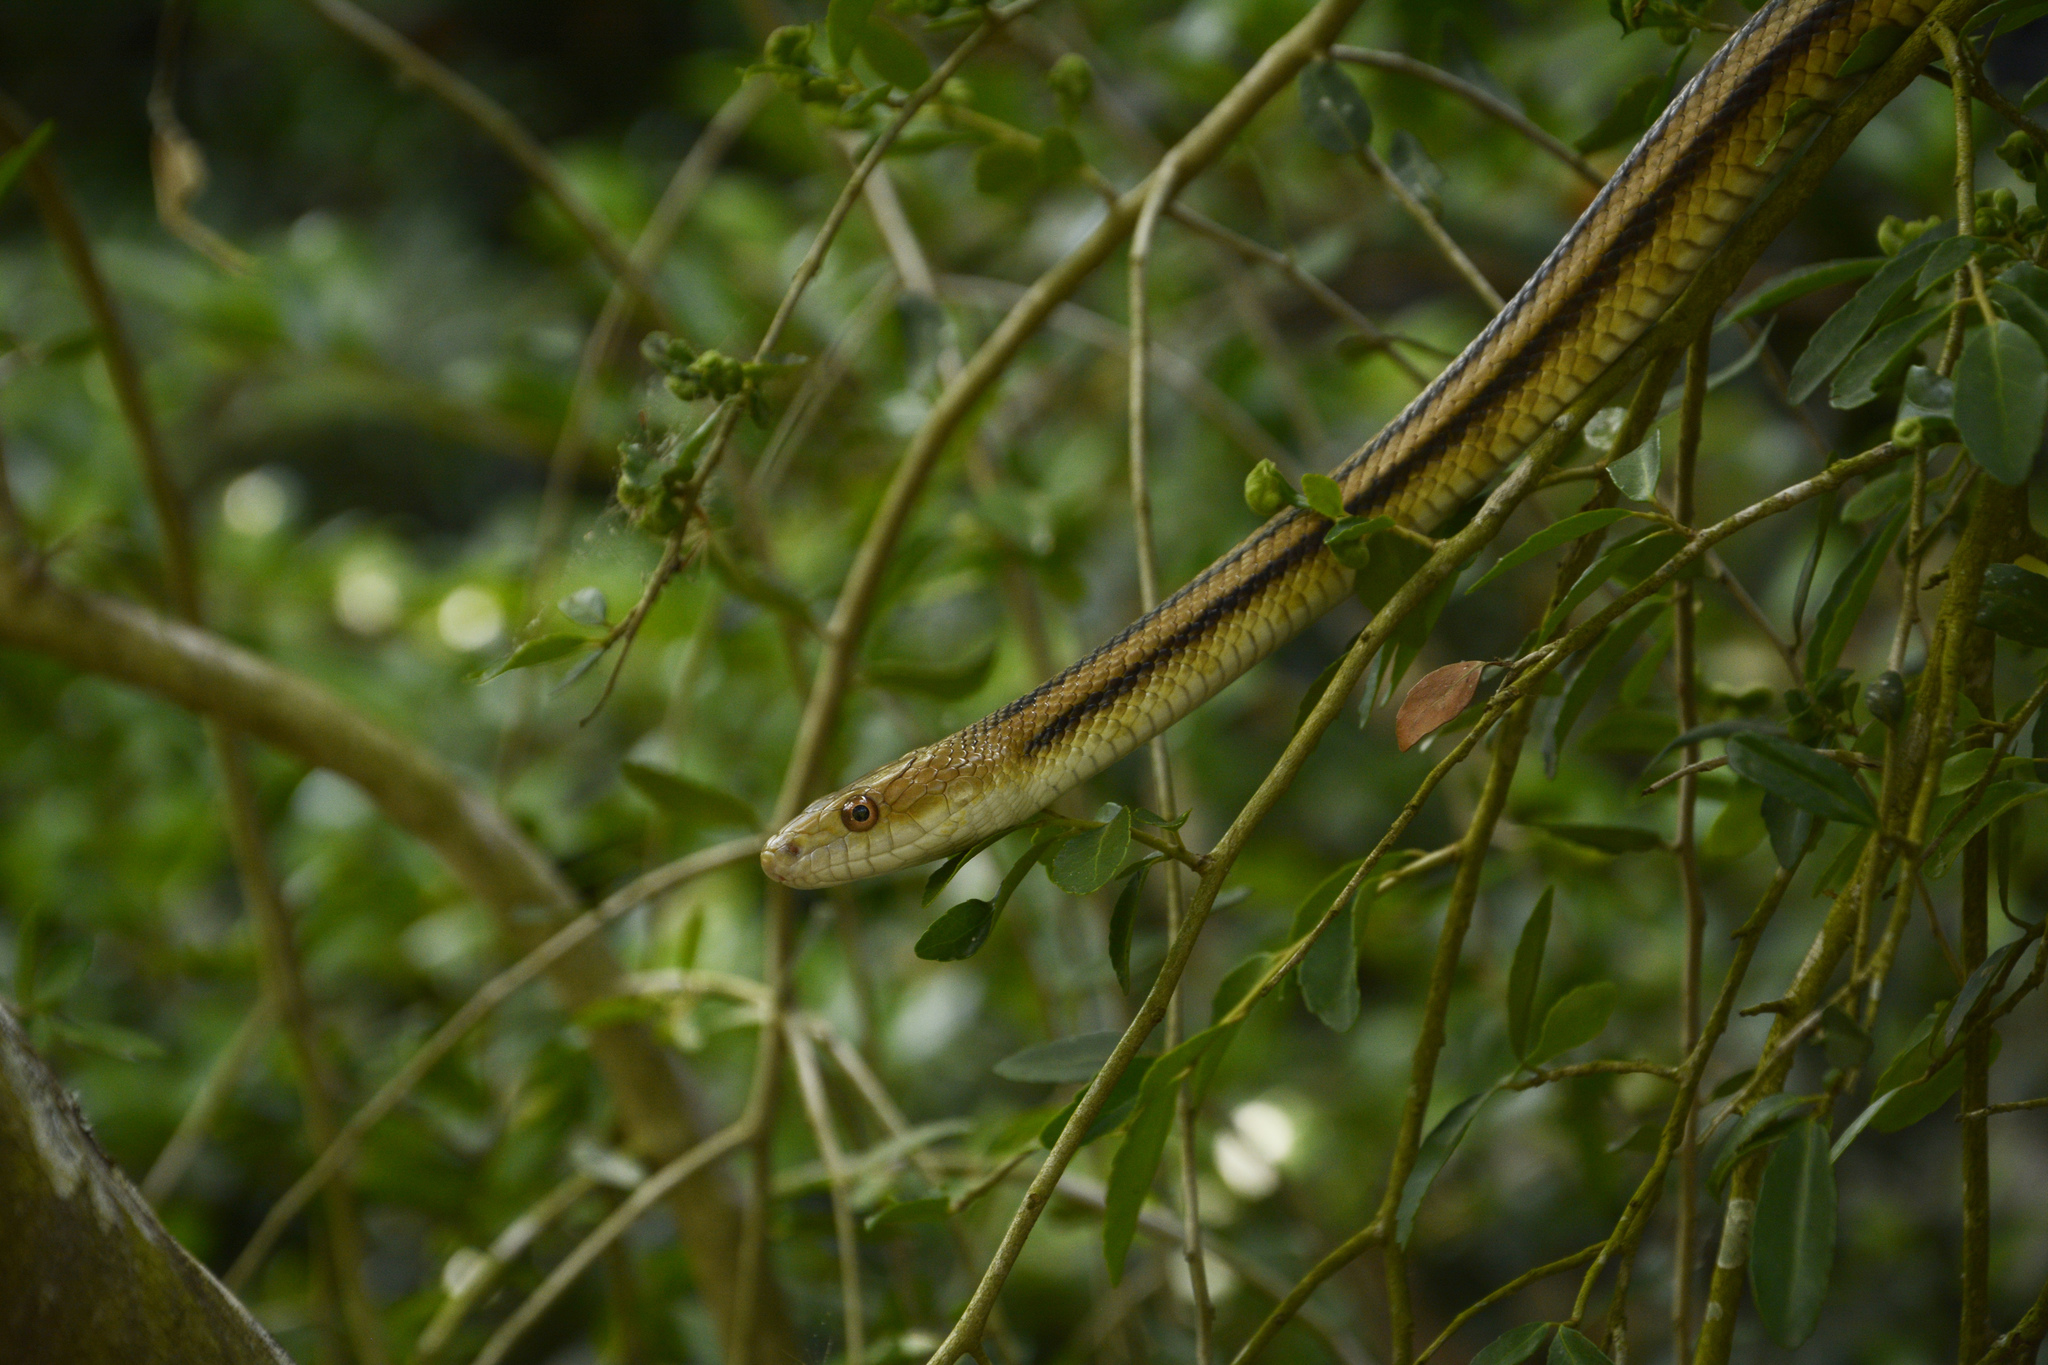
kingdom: Animalia
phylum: Chordata
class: Squamata
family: Colubridae
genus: Pantherophis
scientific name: Pantherophis alleghaniensis
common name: Eastern rat snake
